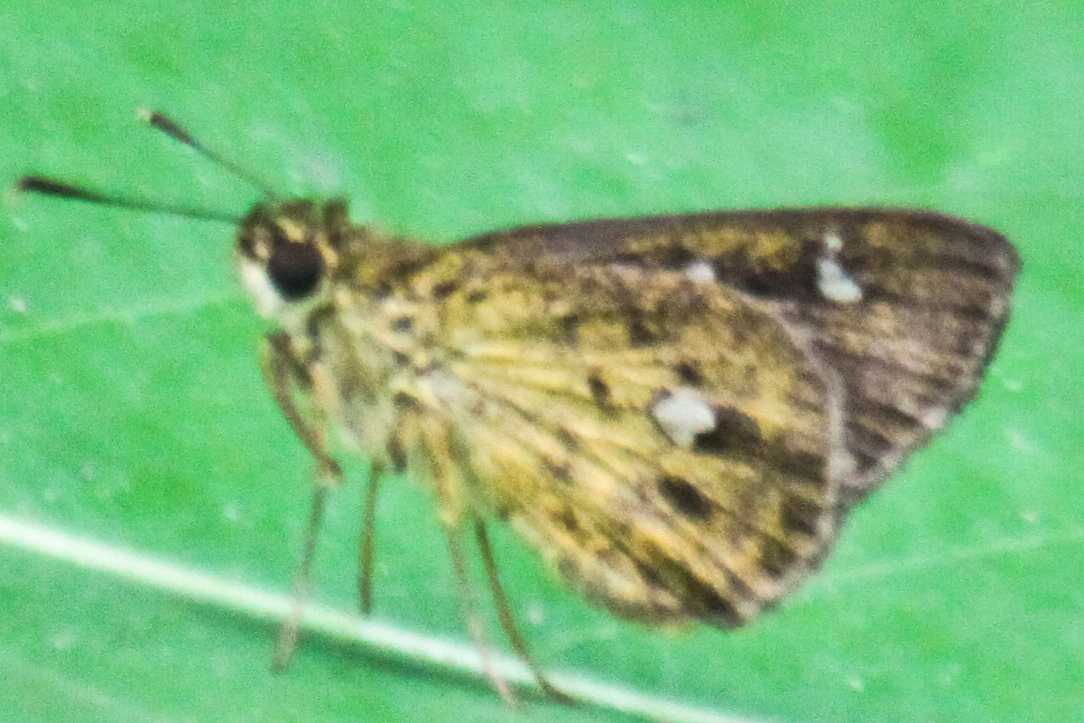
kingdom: Animalia
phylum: Arthropoda
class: Insecta
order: Lepidoptera
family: Hesperiidae
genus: Scobura
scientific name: Scobura phiditia
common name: Malay forest bob
